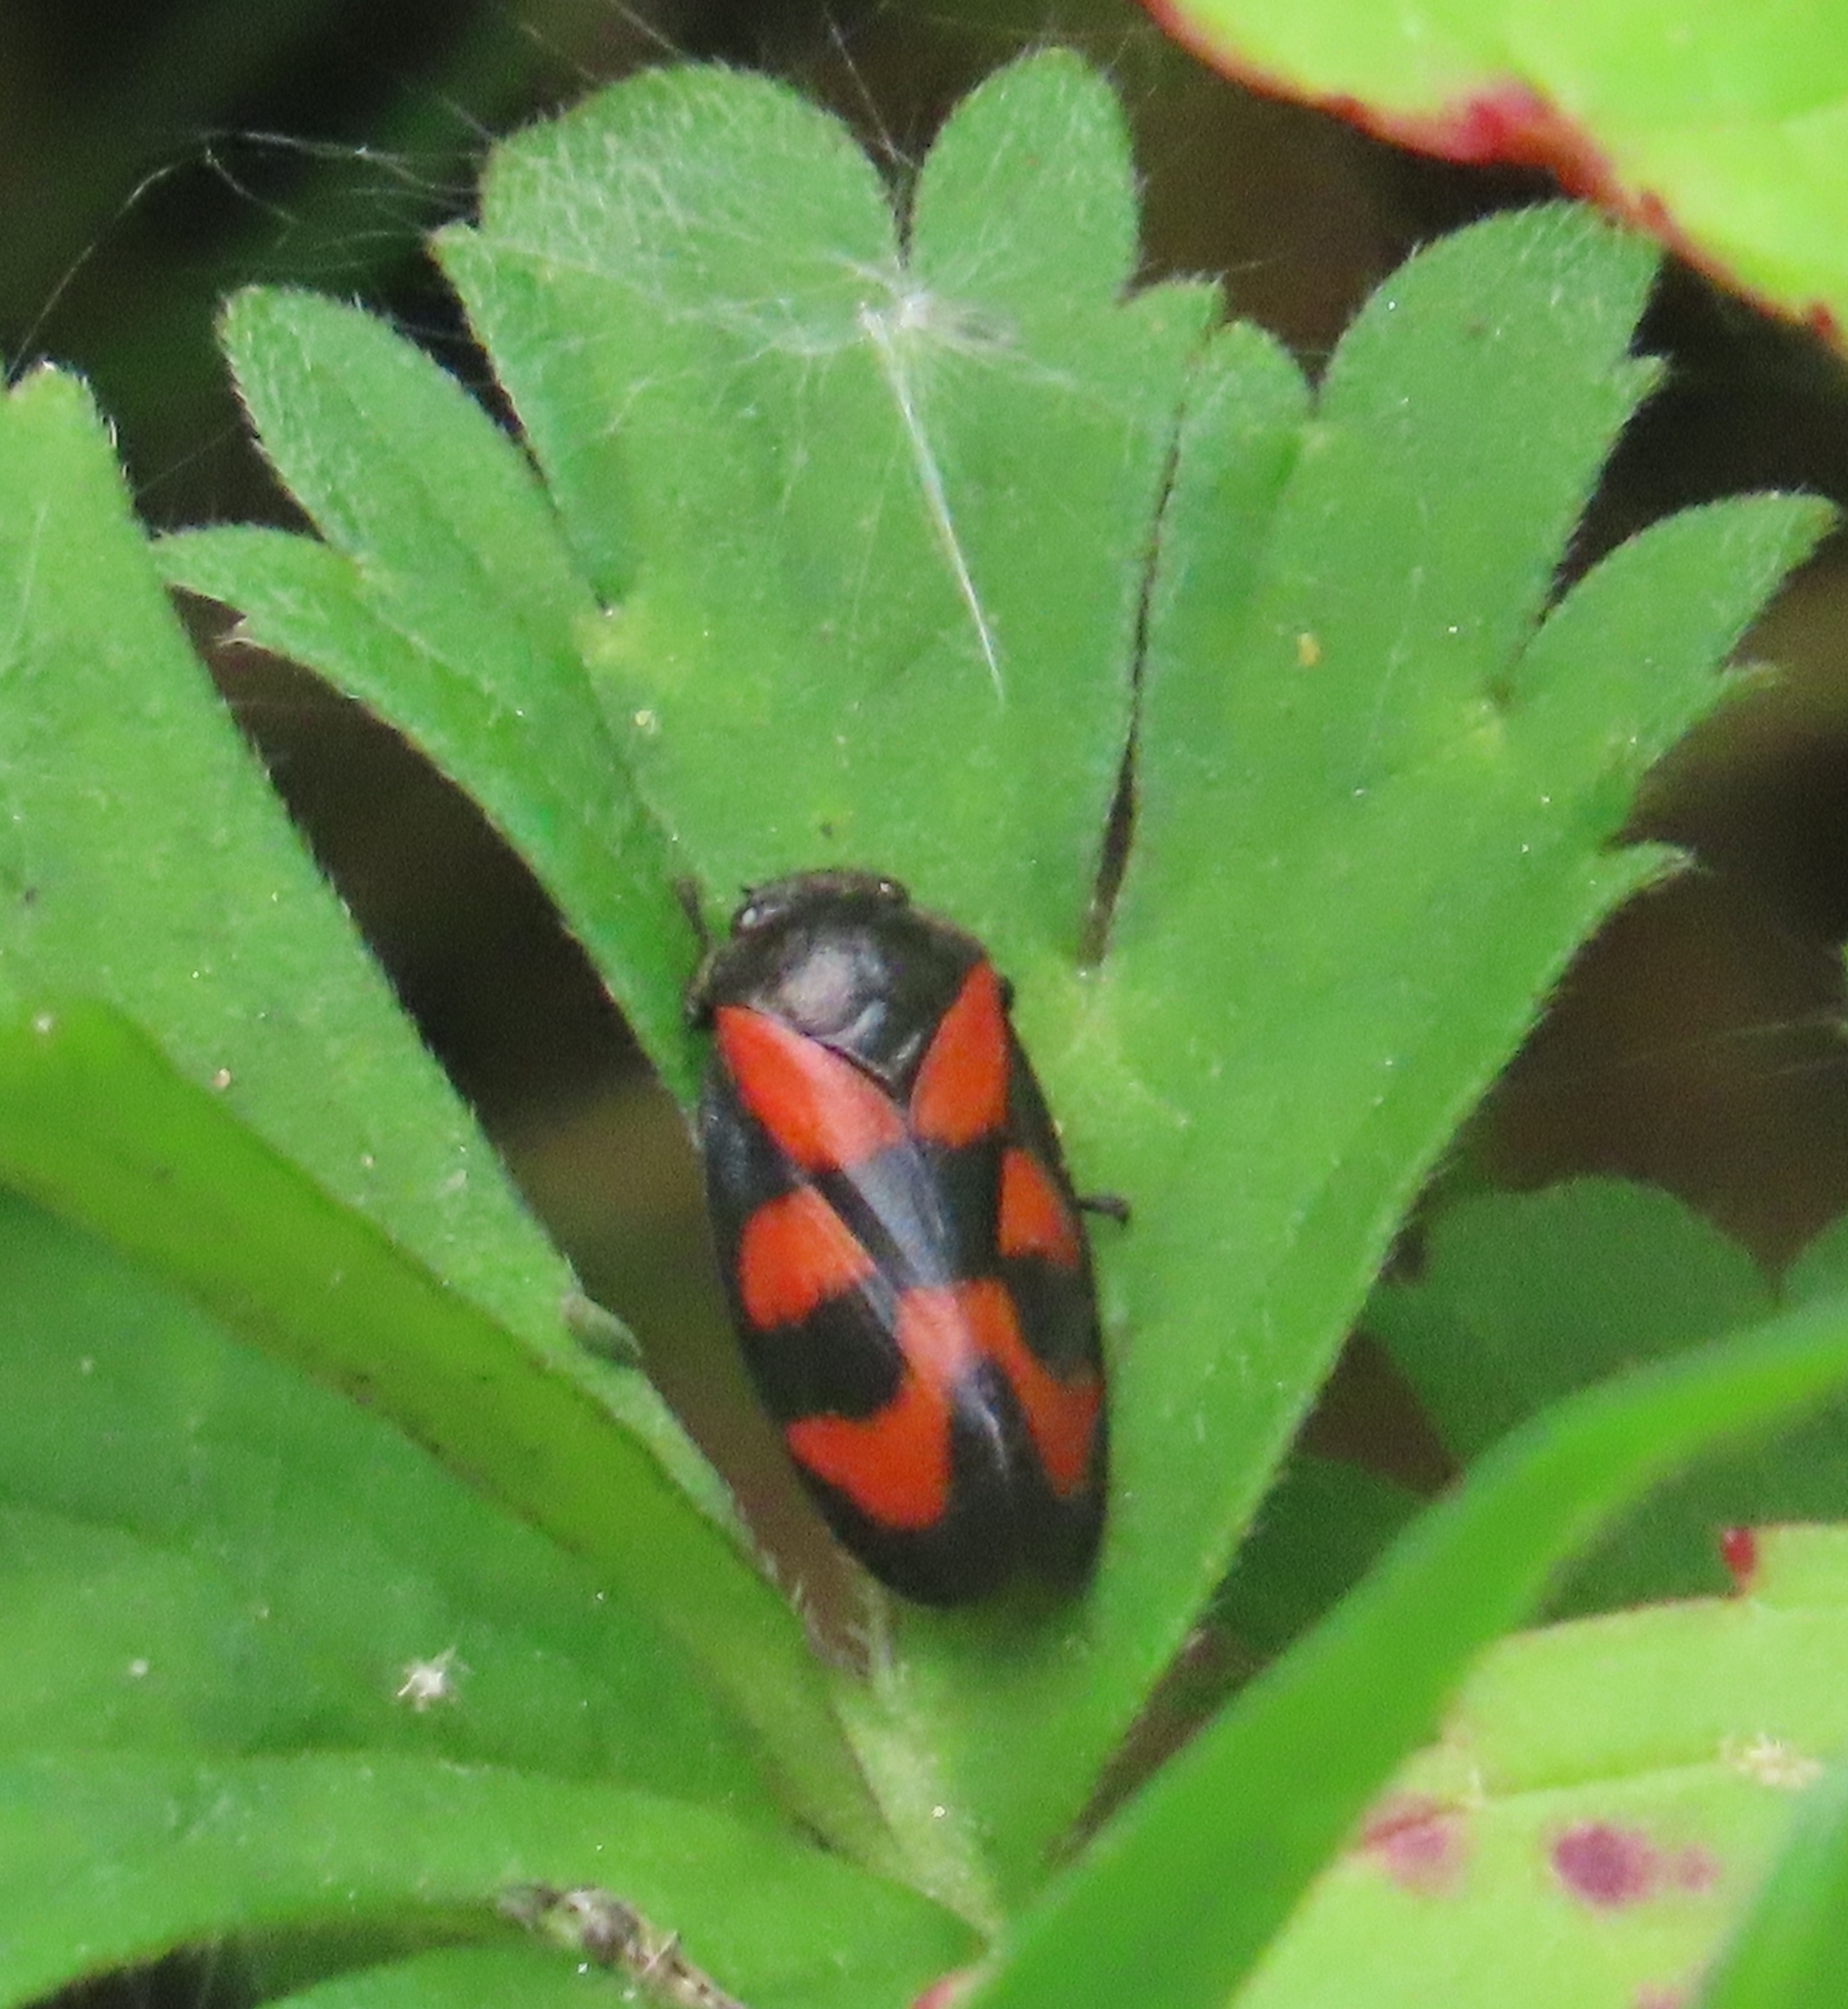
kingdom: Animalia
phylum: Arthropoda
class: Insecta
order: Hemiptera
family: Cercopidae
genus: Cercopis
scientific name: Cercopis vulnerata
